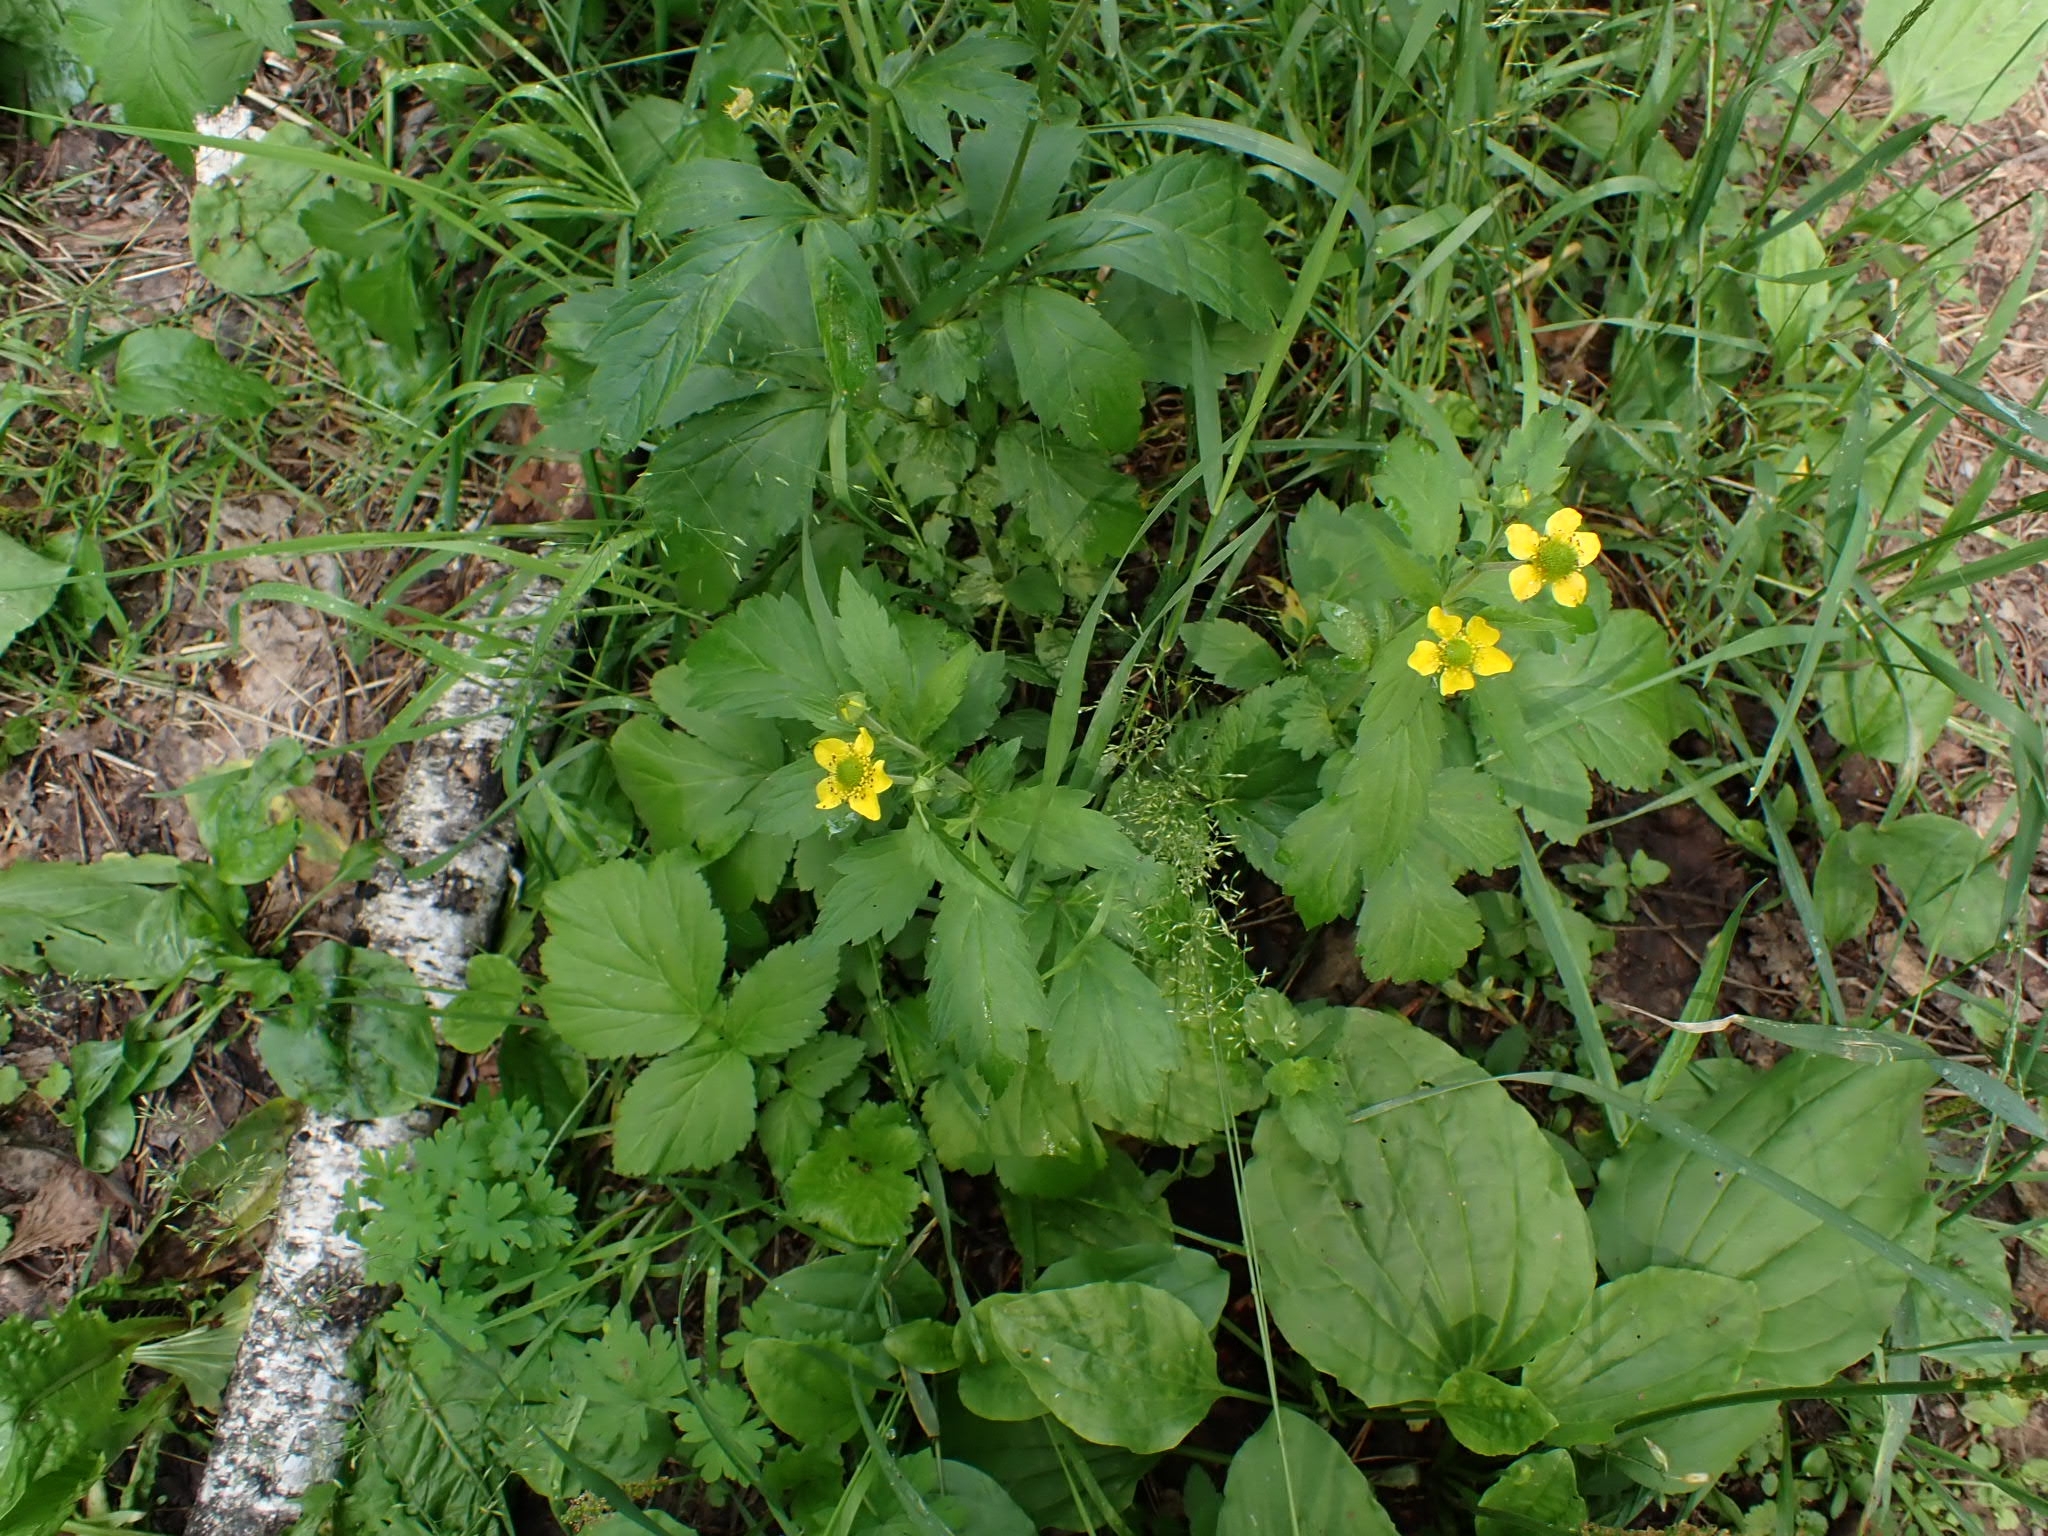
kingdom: Plantae
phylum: Tracheophyta
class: Magnoliopsida
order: Rosales
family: Rosaceae
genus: Geum
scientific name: Geum aleppicum
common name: Yellow avens
